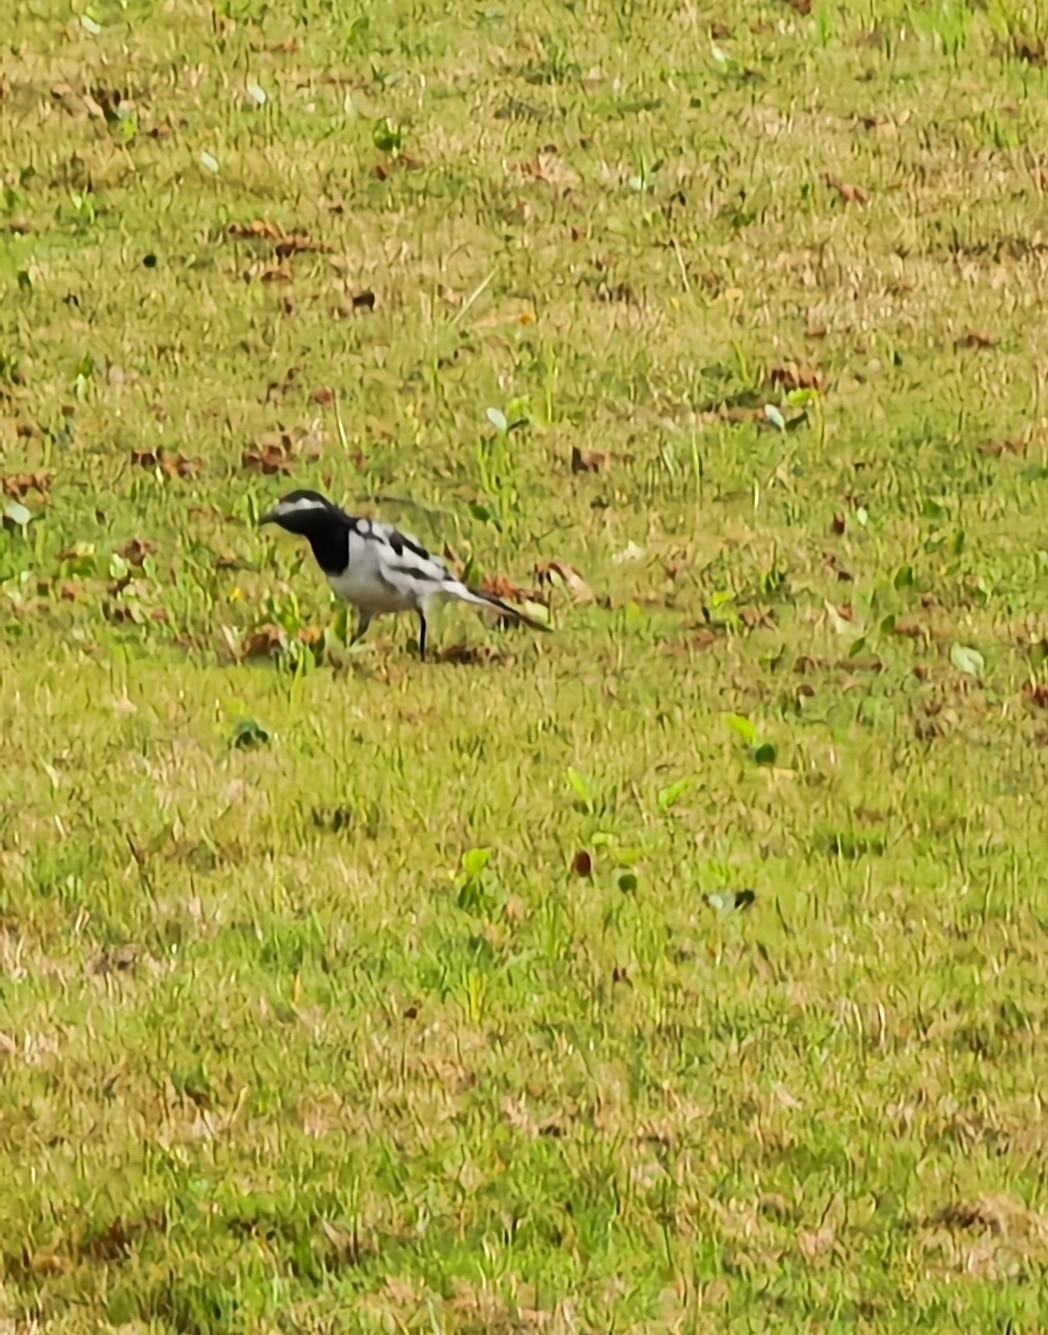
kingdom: Animalia
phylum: Chordata
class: Aves
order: Passeriformes
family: Motacillidae
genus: Motacilla
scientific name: Motacilla maderaspatensis
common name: White-browed wagtail
